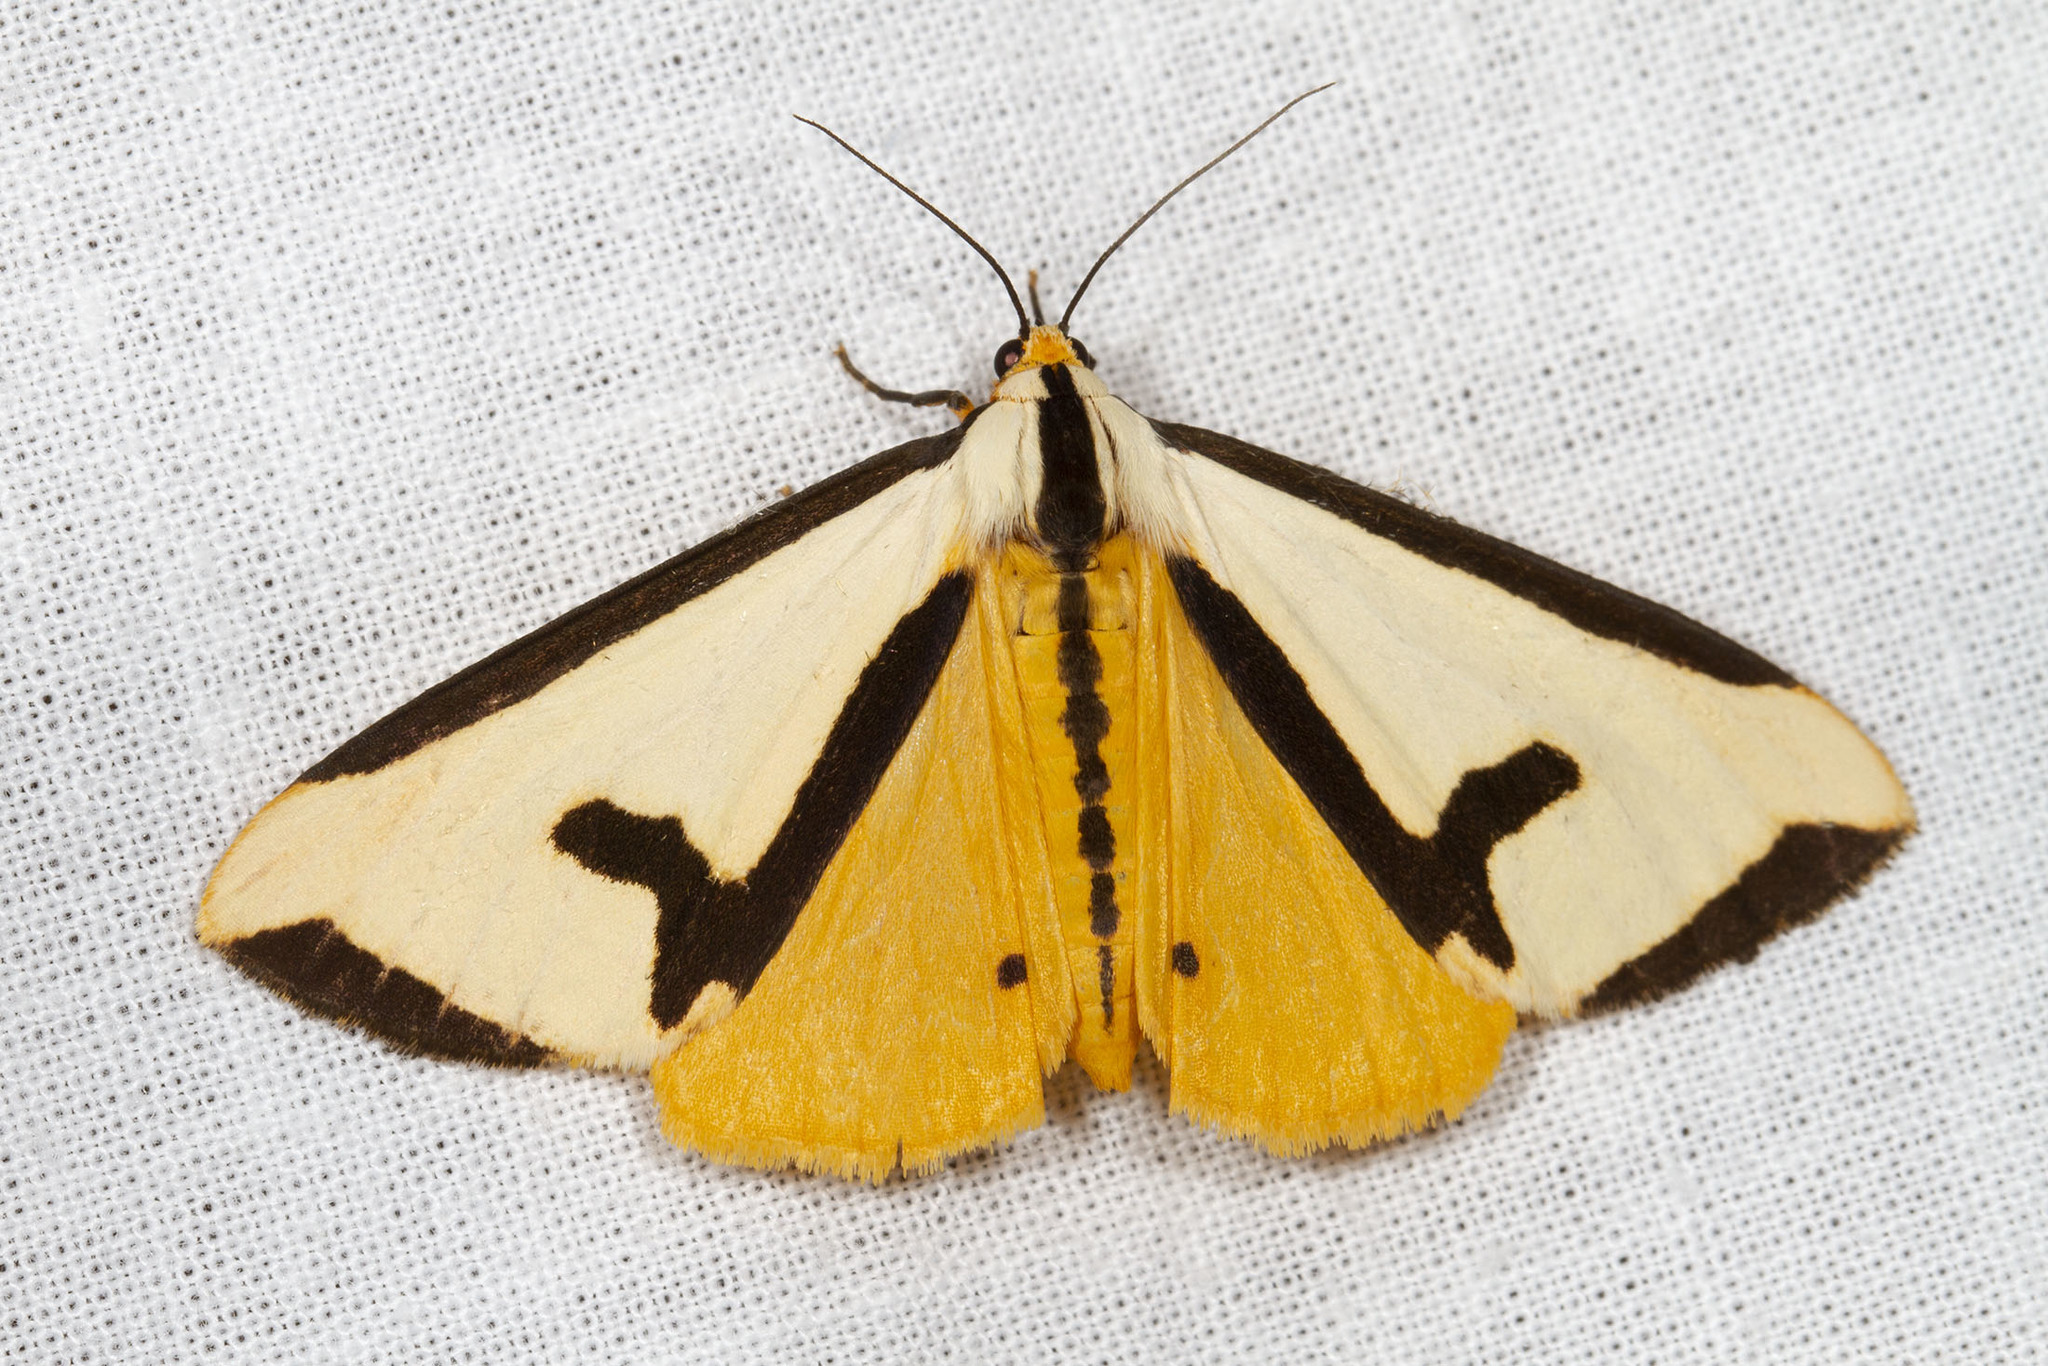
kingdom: Animalia
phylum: Arthropoda
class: Insecta
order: Lepidoptera
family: Erebidae
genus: Haploa
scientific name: Haploa clymene
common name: Clymene moth
